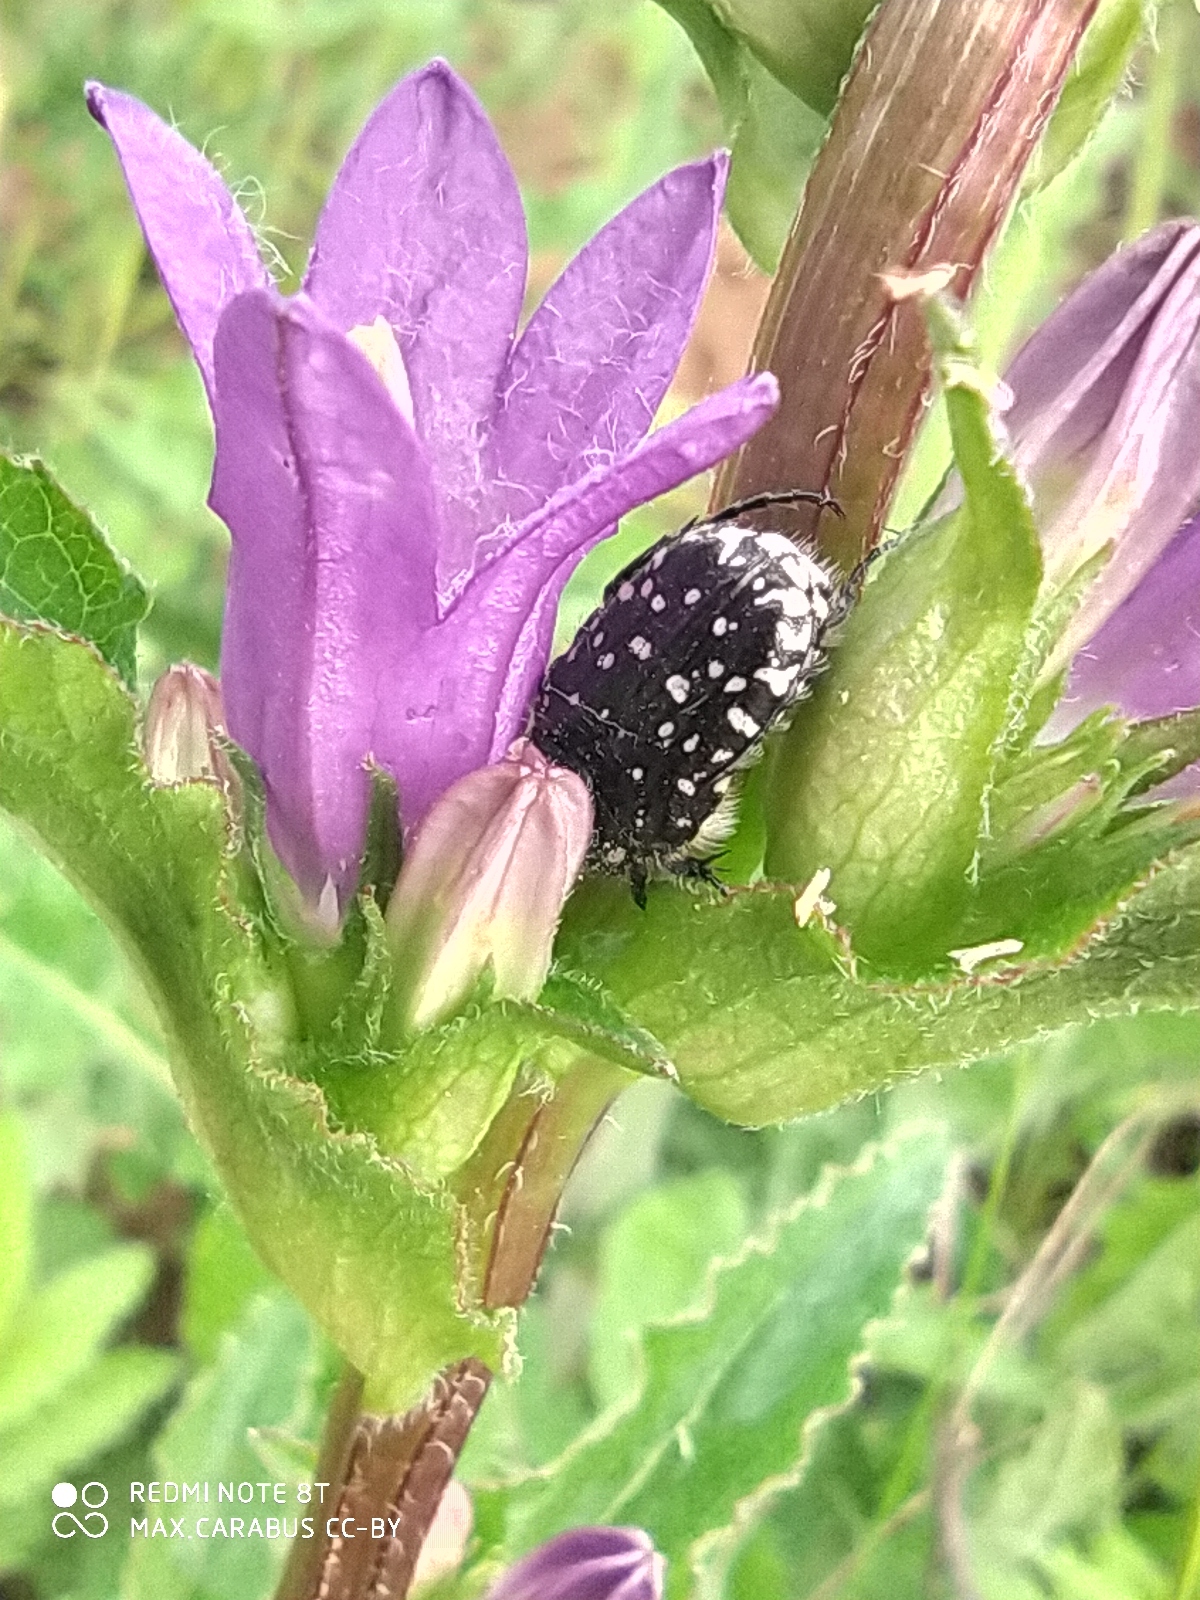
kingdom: Animalia
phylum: Arthropoda
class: Insecta
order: Coleoptera
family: Scarabaeidae
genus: Oxythyrea
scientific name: Oxythyrea funesta
